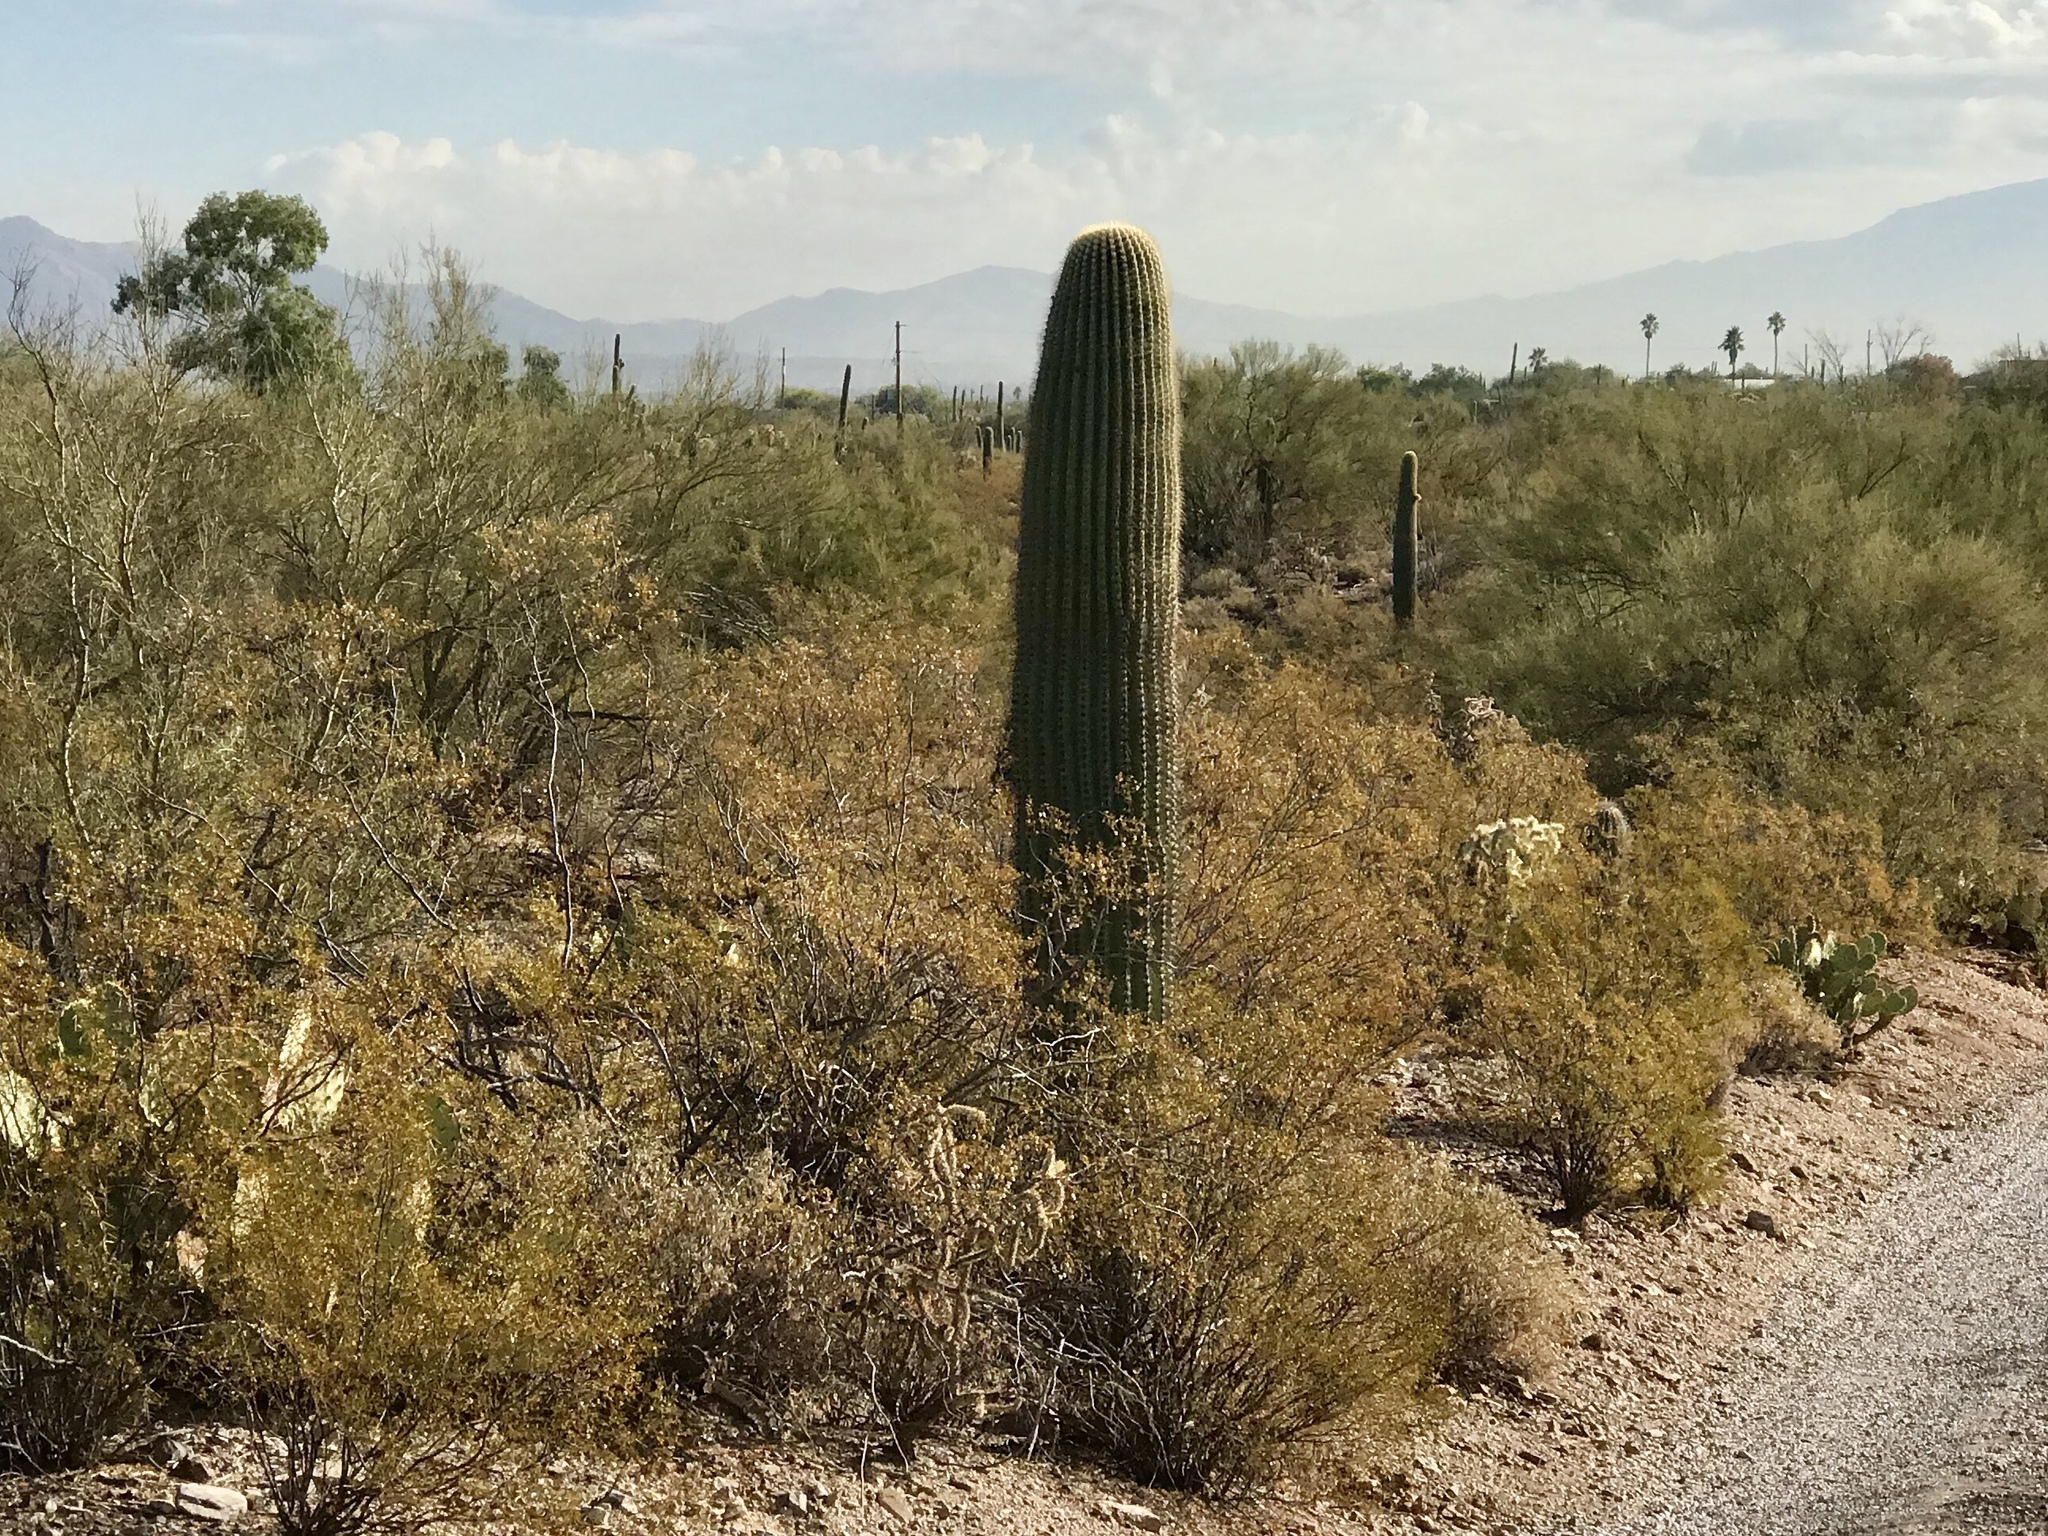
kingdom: Plantae
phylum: Tracheophyta
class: Magnoliopsida
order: Caryophyllales
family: Cactaceae
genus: Carnegiea
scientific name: Carnegiea gigantea
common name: Saguaro
